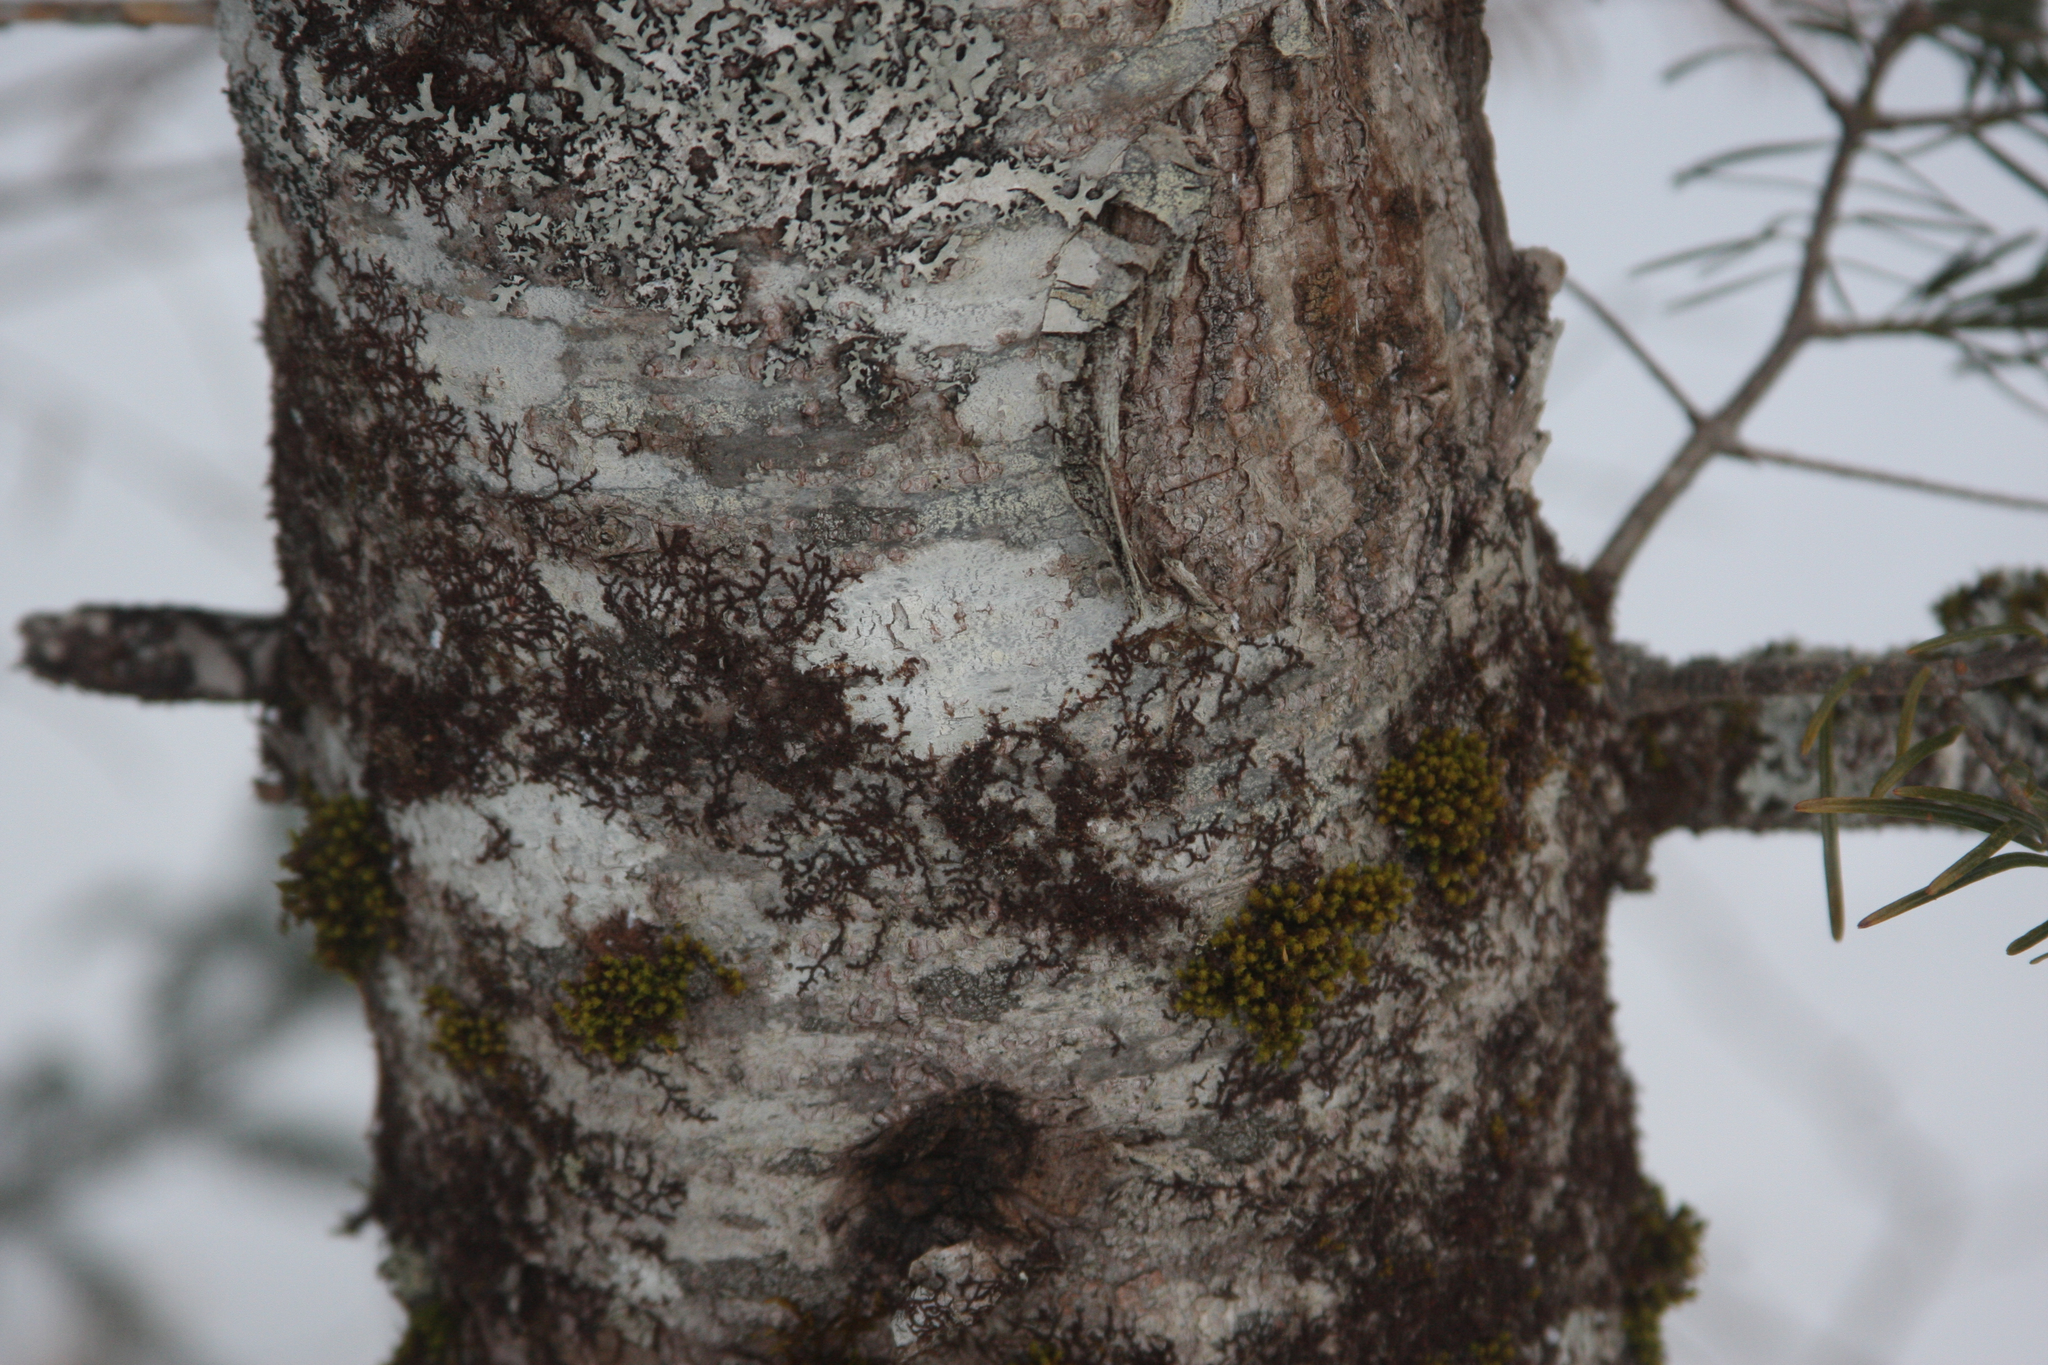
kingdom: Plantae
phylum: Bryophyta
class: Bryopsida
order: Orthotrichales
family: Orthotrichaceae
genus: Ulota
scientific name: Ulota crispa
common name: Crisped pincushion moss
